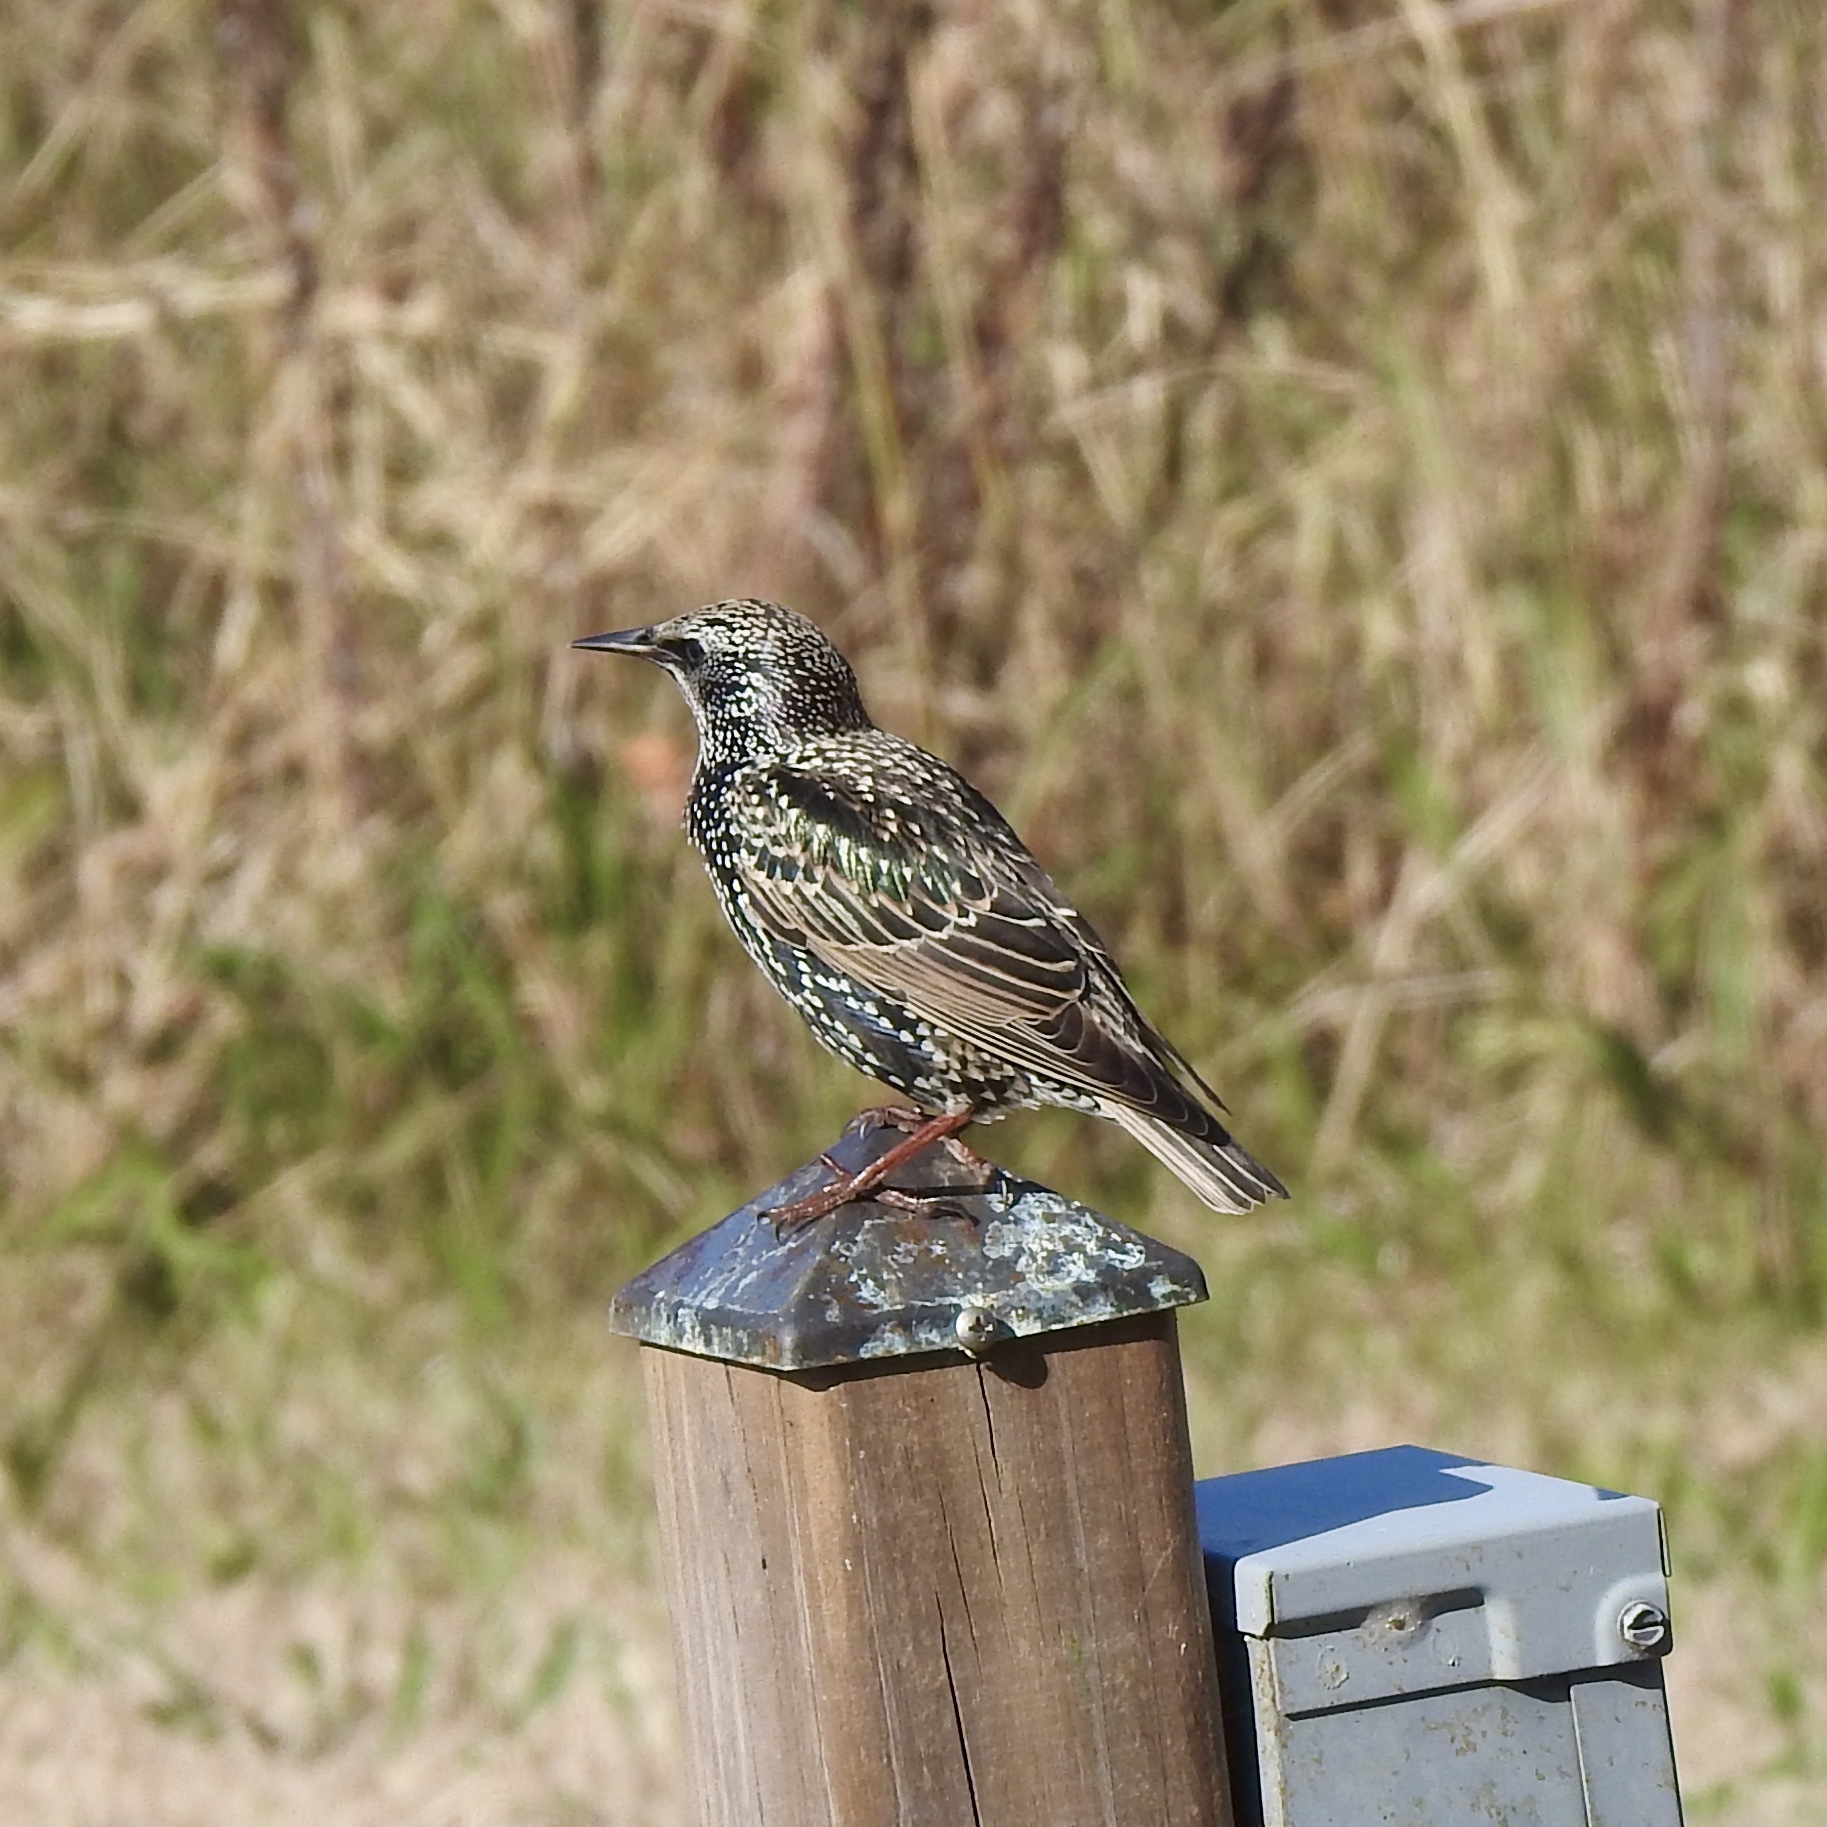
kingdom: Animalia
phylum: Chordata
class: Aves
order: Passeriformes
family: Sturnidae
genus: Sturnus
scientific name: Sturnus vulgaris
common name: Common starling
